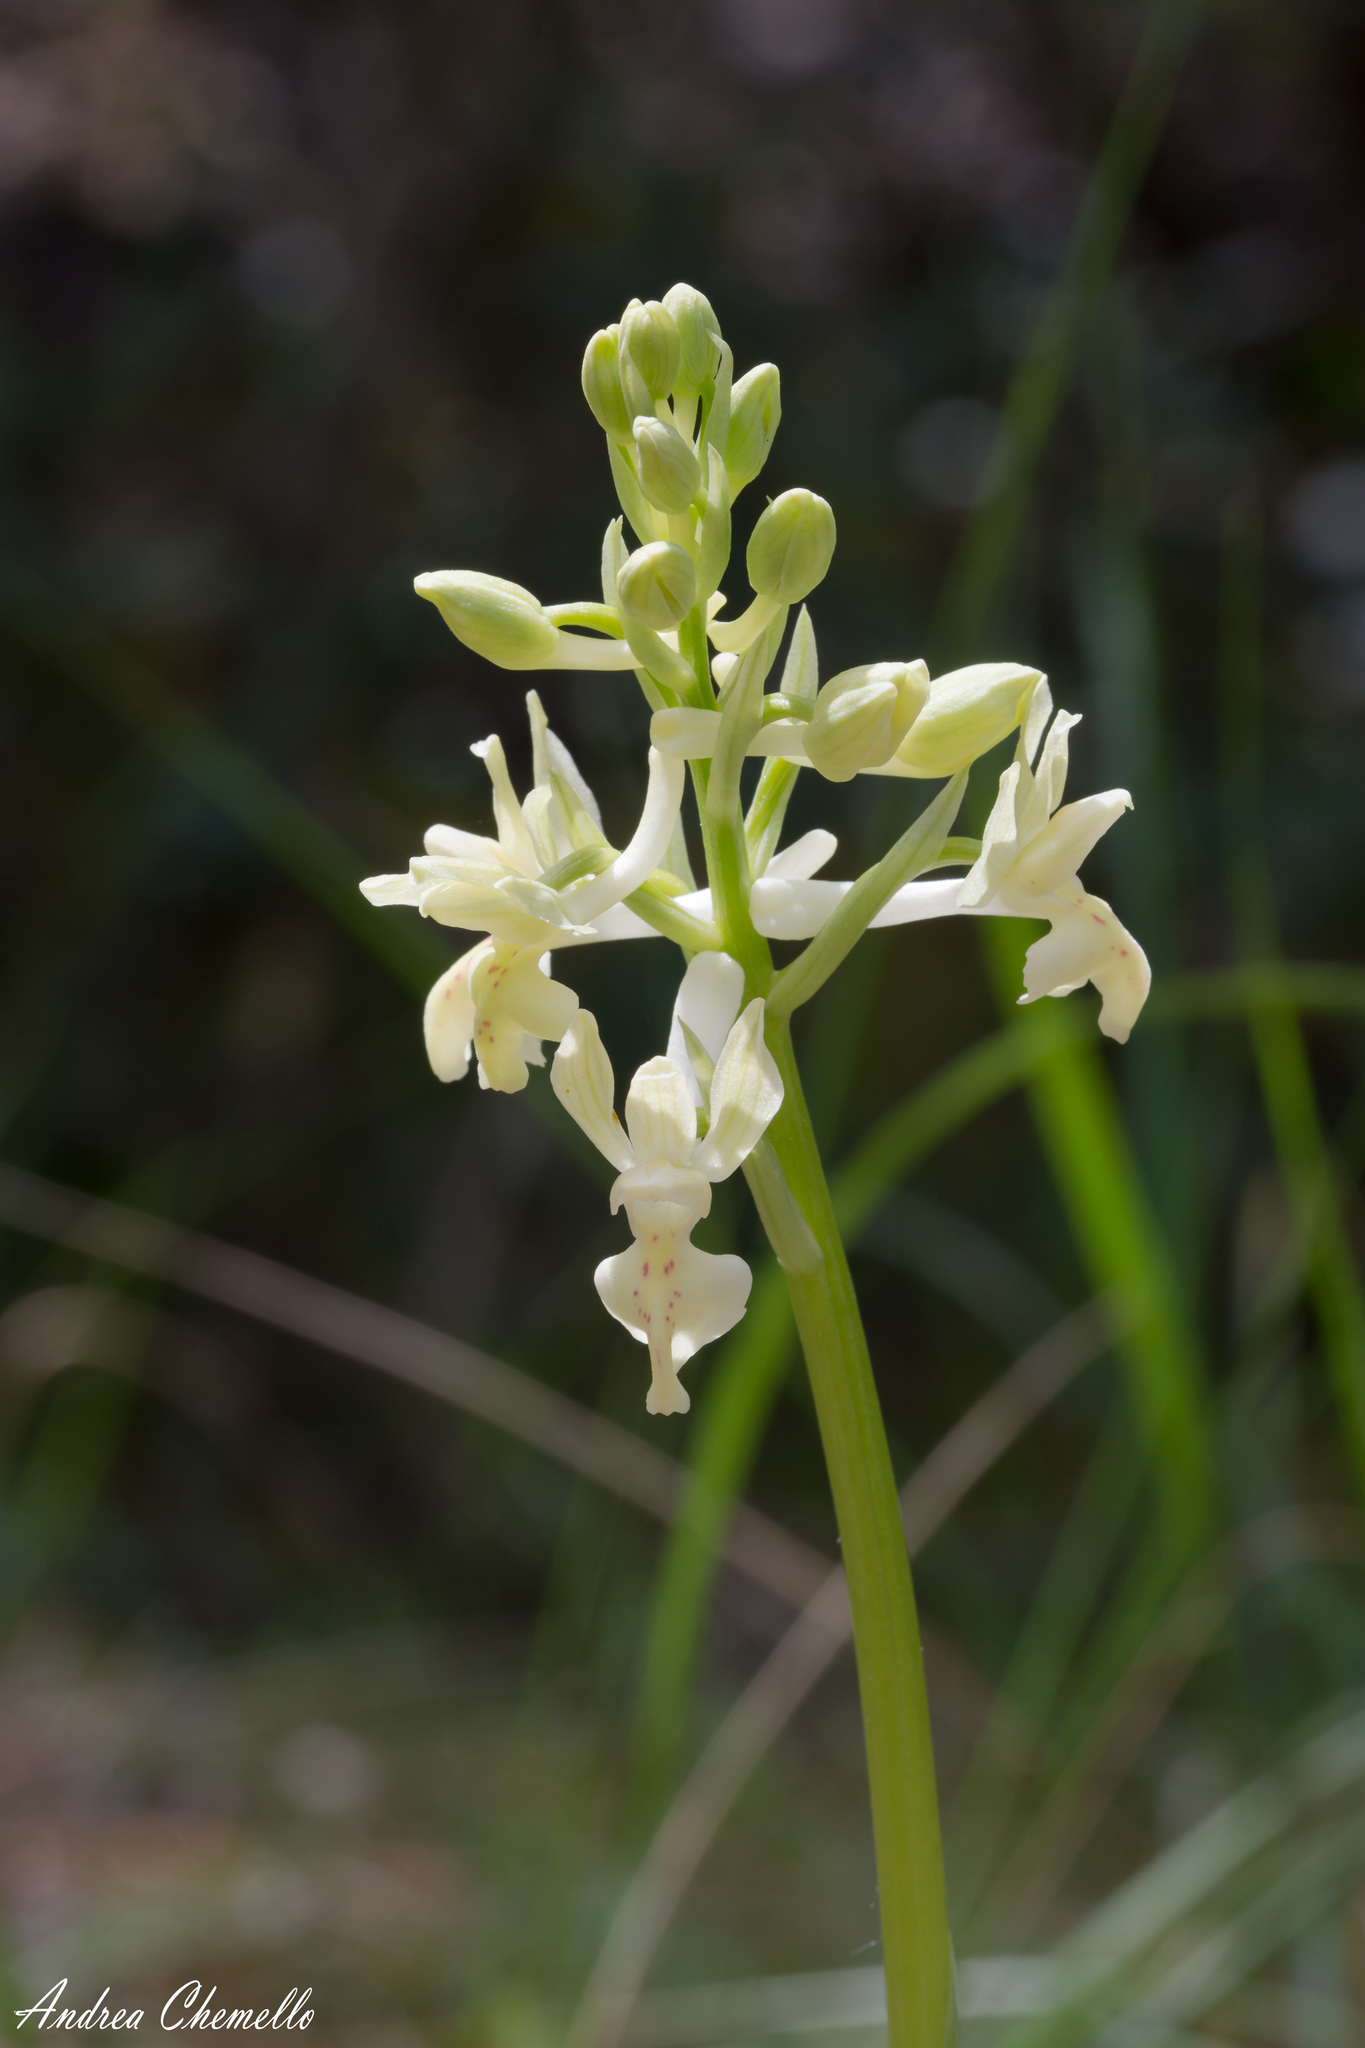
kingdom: Plantae
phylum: Tracheophyta
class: Liliopsida
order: Asparagales
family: Orchidaceae
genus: Orchis
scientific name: Orchis provincialis
